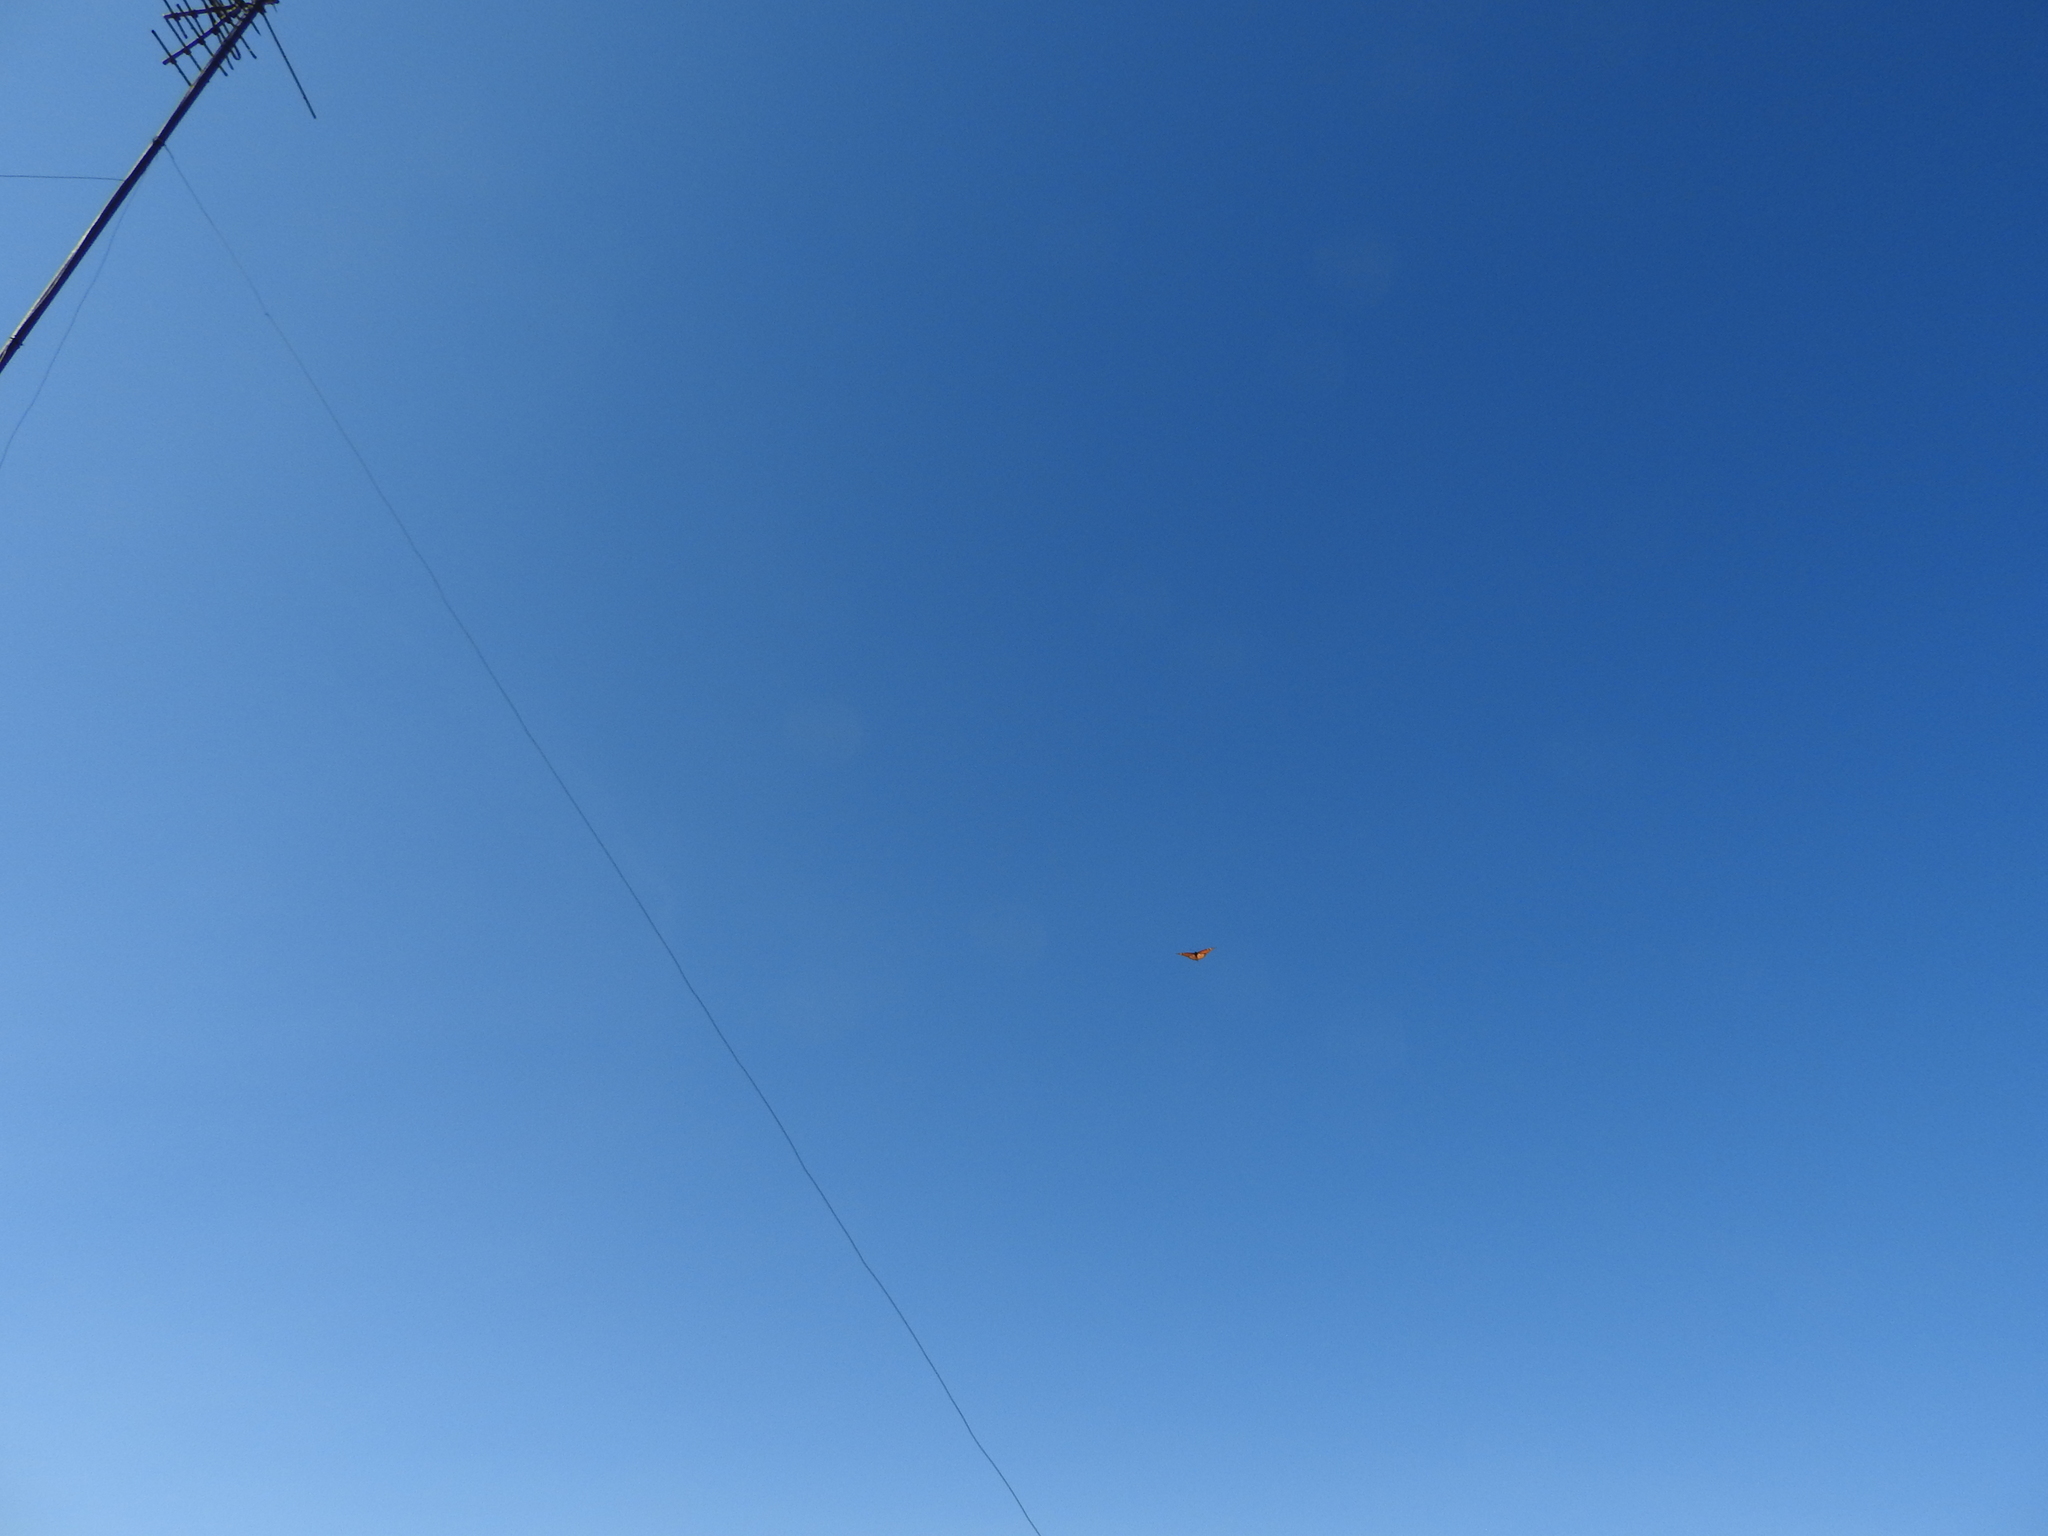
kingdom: Animalia
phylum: Arthropoda
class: Insecta
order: Lepidoptera
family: Nymphalidae
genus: Danaus
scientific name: Danaus plexippus
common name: Monarch
